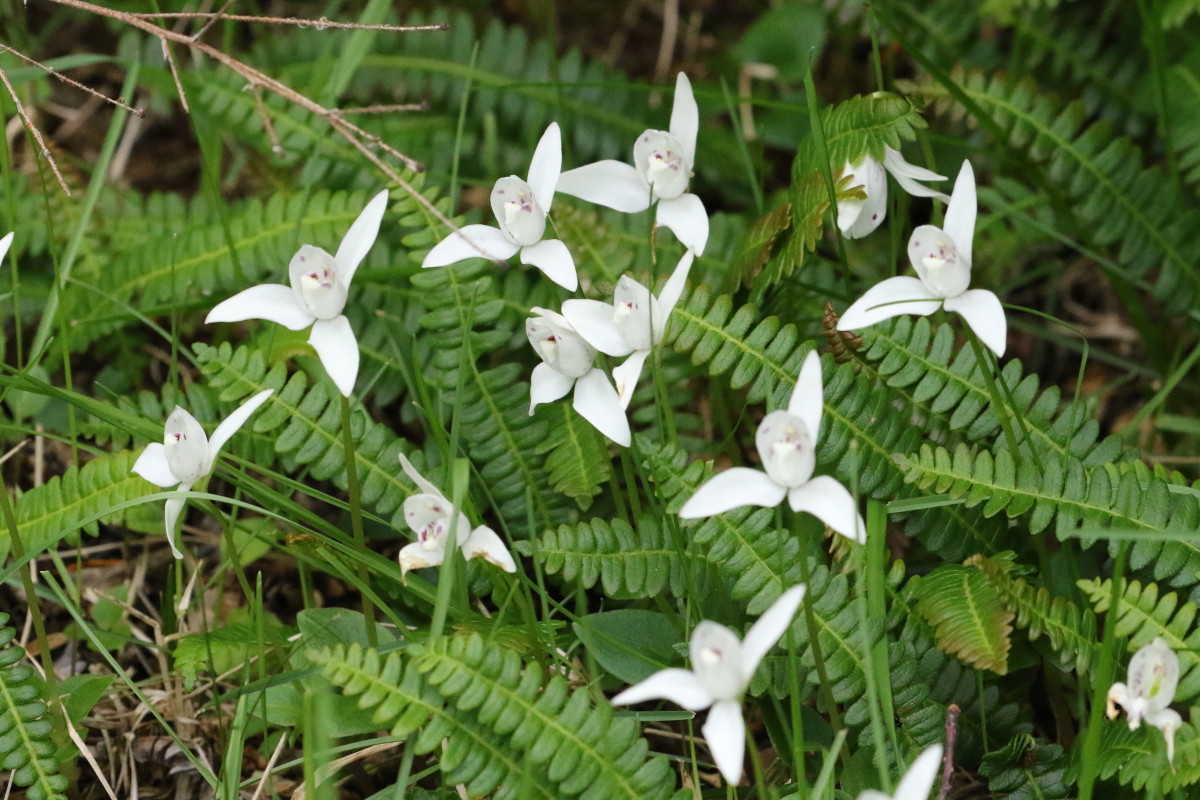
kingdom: Plantae
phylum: Tracheophyta
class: Liliopsida
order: Asparagales
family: Orchidaceae
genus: Codonorchis
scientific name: Codonorchis lessonii
